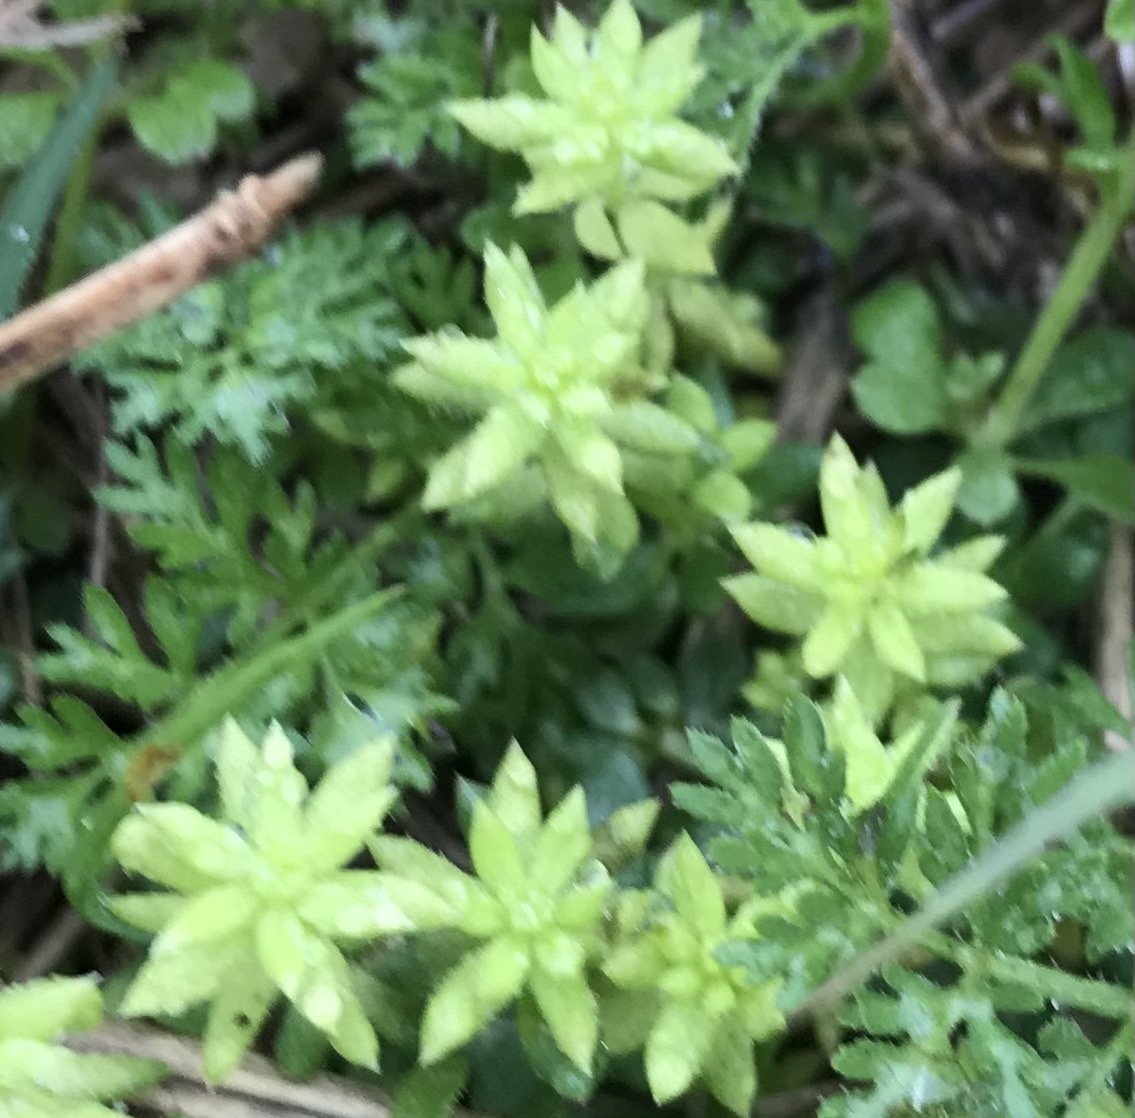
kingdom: Plantae
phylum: Tracheophyta
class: Magnoliopsida
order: Gentianales
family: Rubiaceae
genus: Sherardia
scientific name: Sherardia arvensis
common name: Field madder
